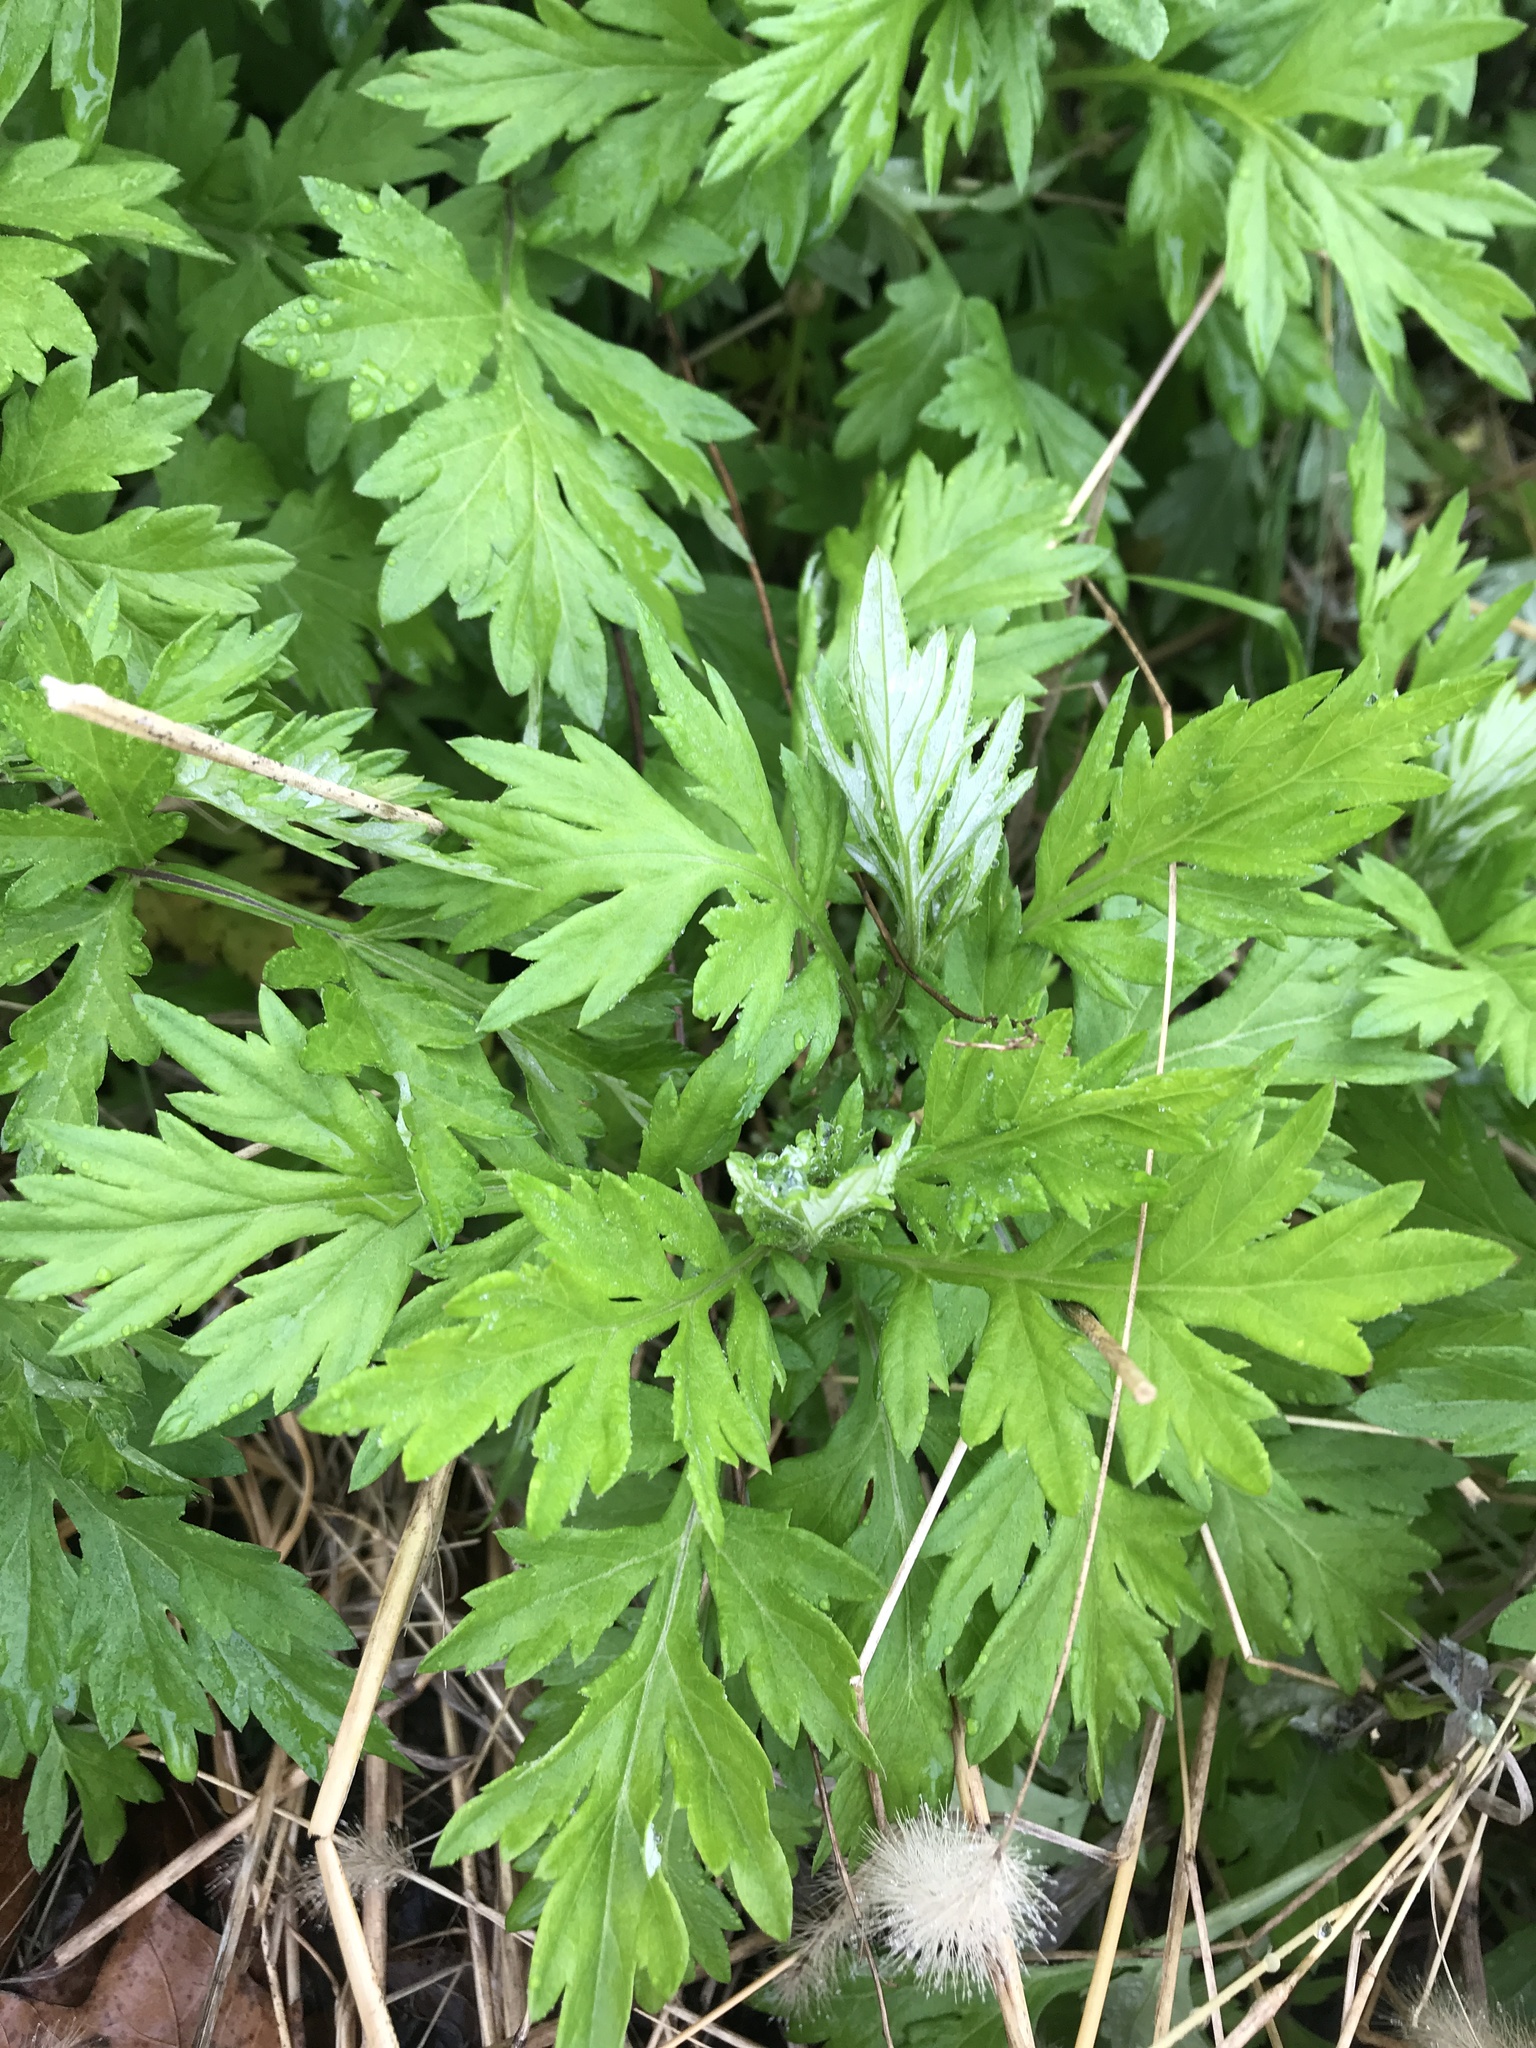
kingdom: Plantae
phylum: Tracheophyta
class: Magnoliopsida
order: Asterales
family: Asteraceae
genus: Artemisia
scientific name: Artemisia vulgaris
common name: Mugwort
